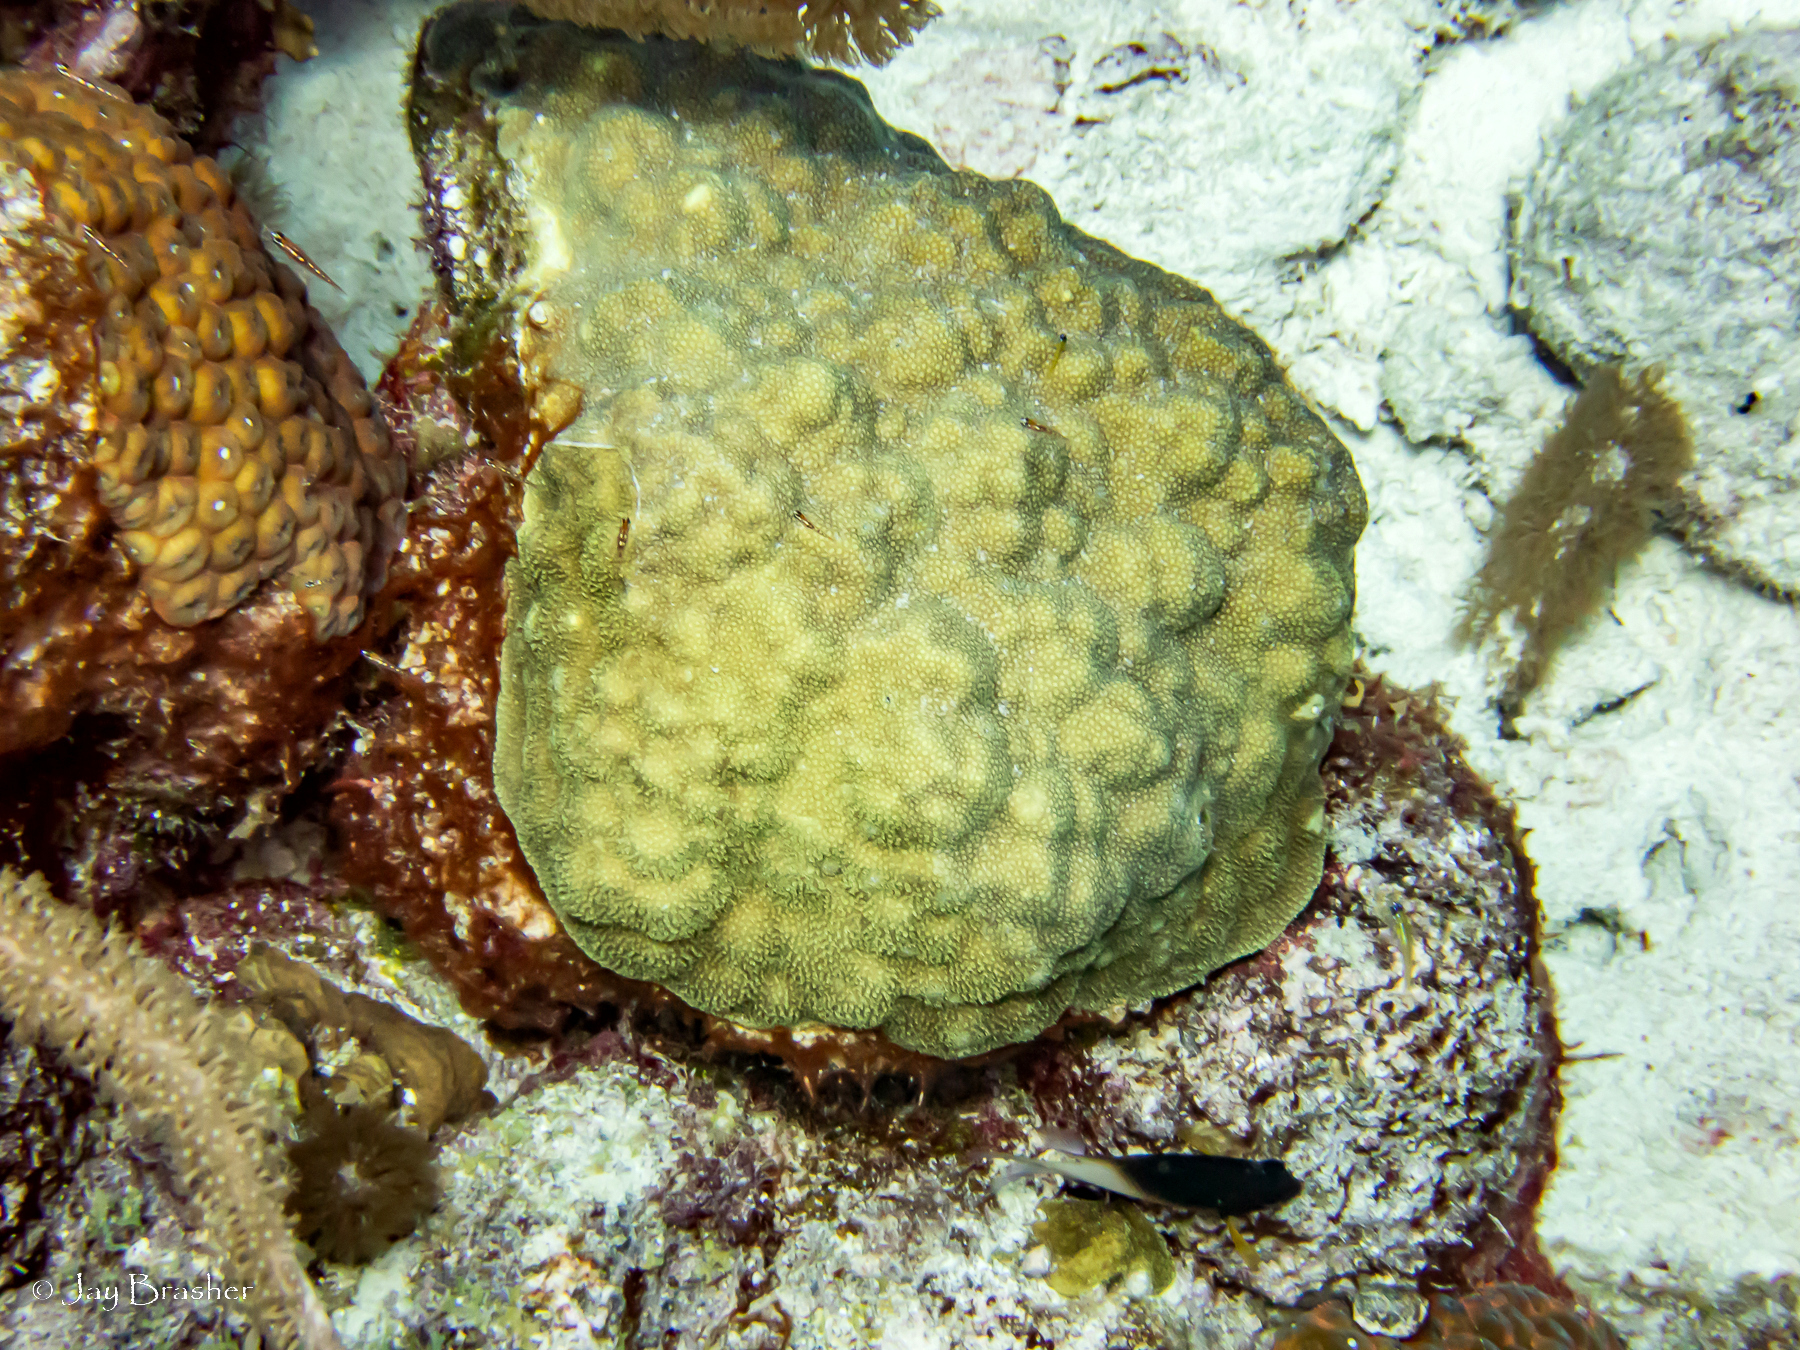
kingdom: Animalia
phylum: Cnidaria
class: Anthozoa
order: Scleractinia
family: Poritidae
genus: Porites
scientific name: Porites astreoides
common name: Mustard hill coral
